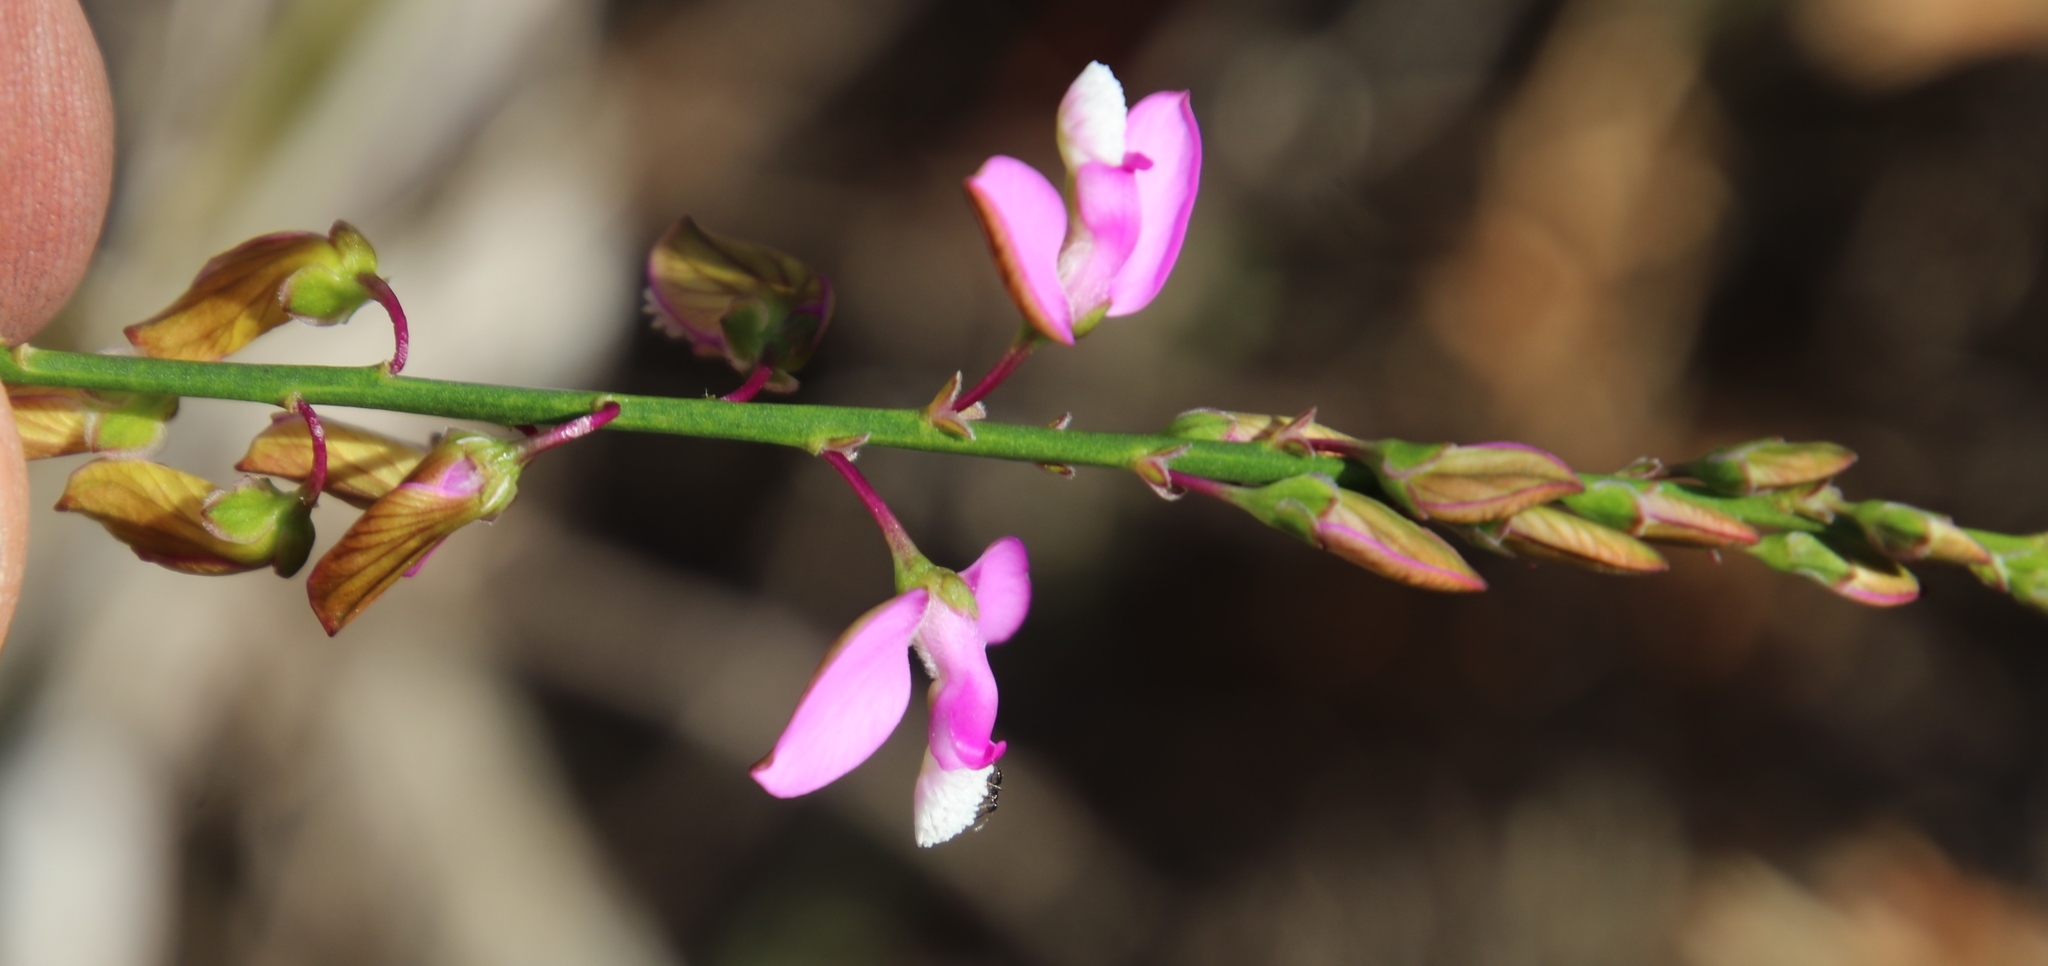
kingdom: Plantae
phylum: Tracheophyta
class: Magnoliopsida
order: Fabales
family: Polygalaceae
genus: Polygala
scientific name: Polygala garcini
